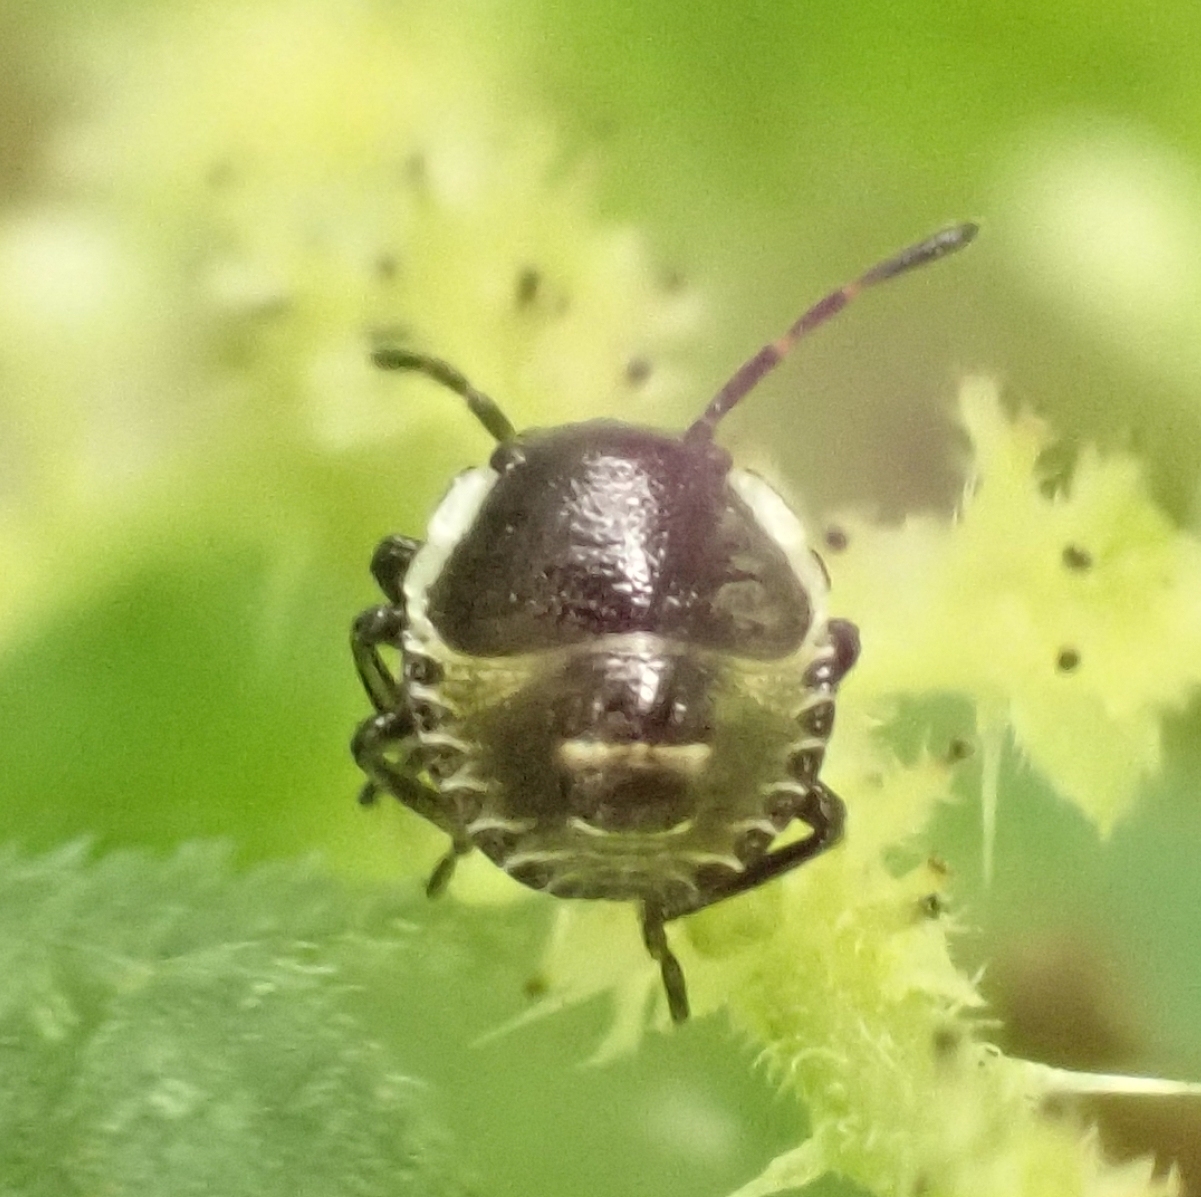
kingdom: Animalia
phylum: Arthropoda
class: Insecta
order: Hemiptera
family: Pentatomidae
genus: Palomena
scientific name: Palomena prasina
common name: Green shieldbug
